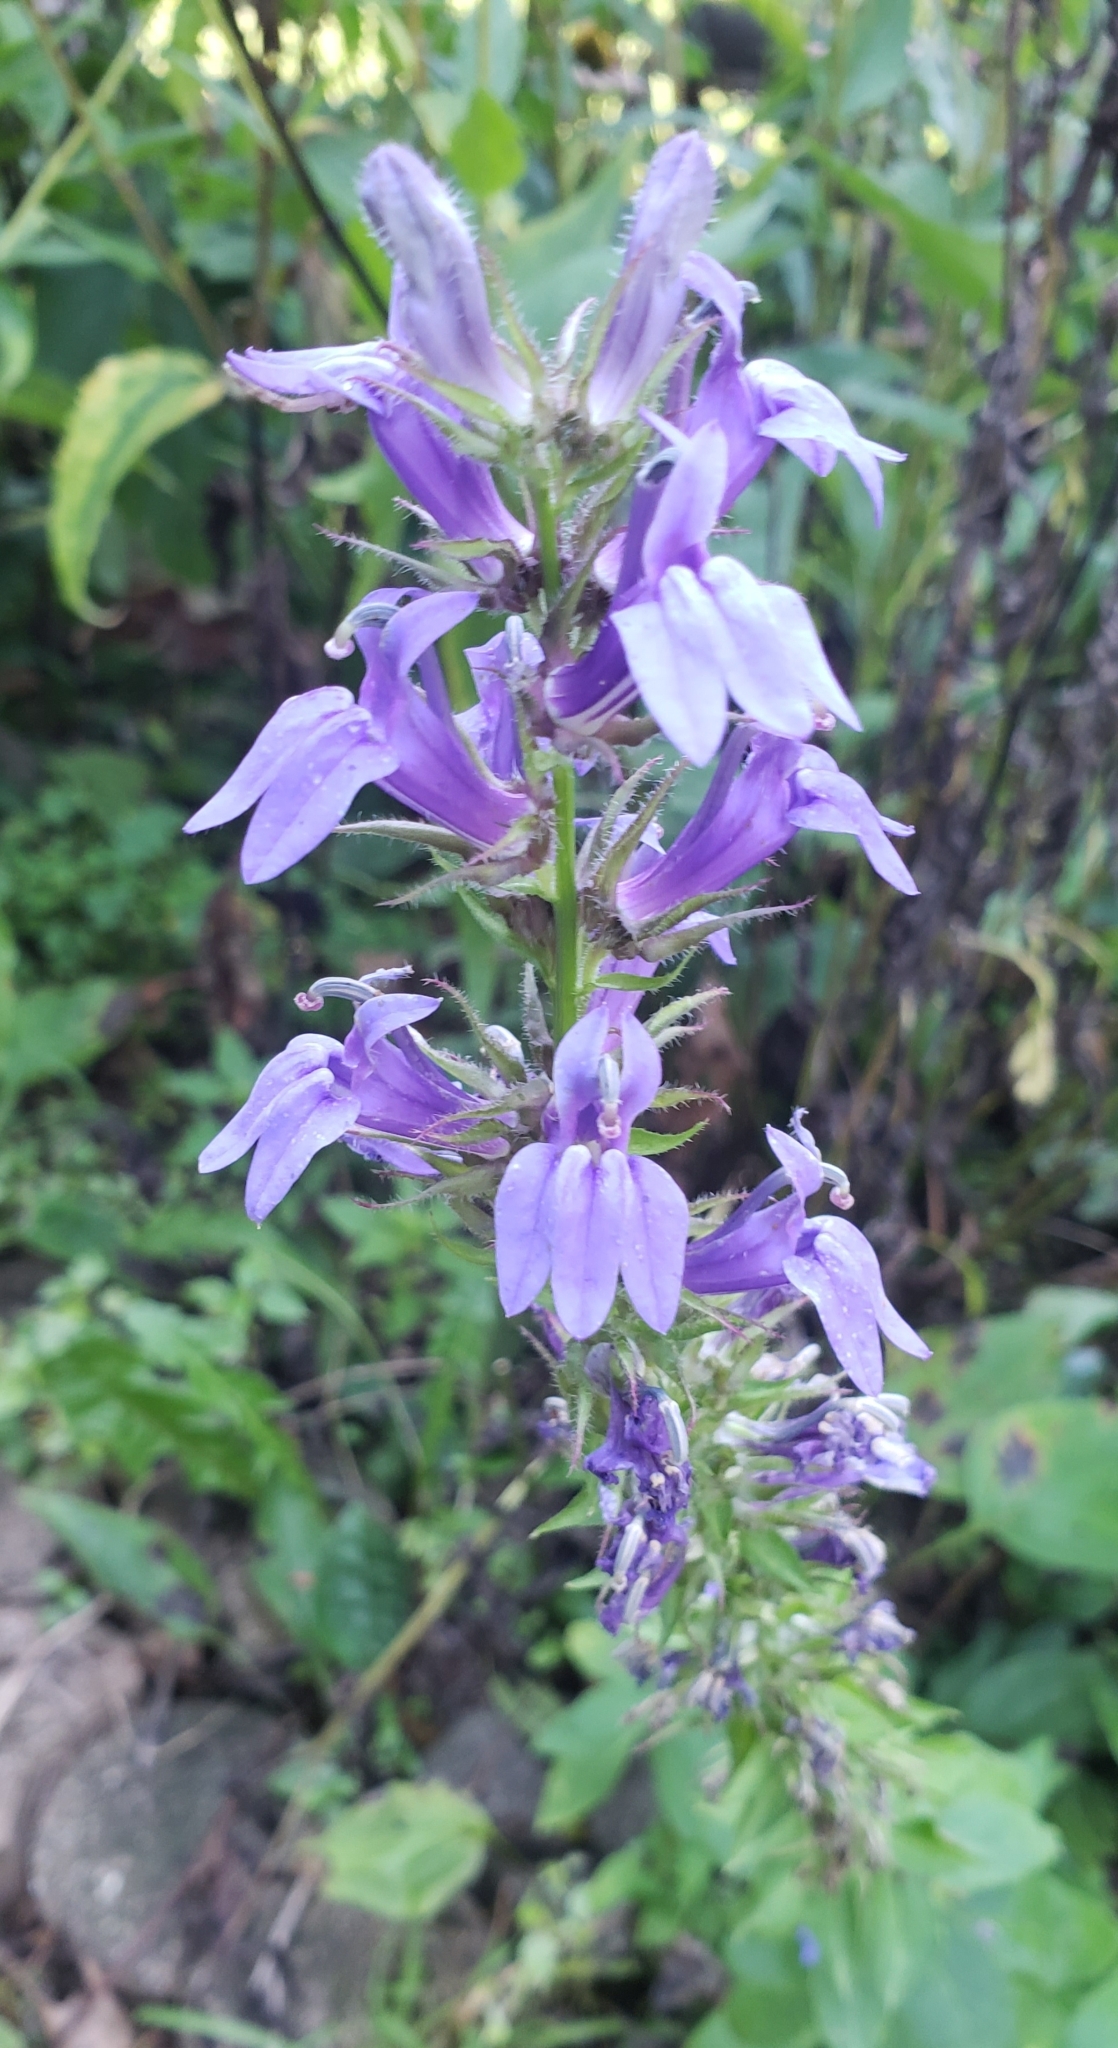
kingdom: Plantae
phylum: Tracheophyta
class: Magnoliopsida
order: Asterales
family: Campanulaceae
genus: Lobelia
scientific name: Lobelia siphilitica
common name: Great lobelia
